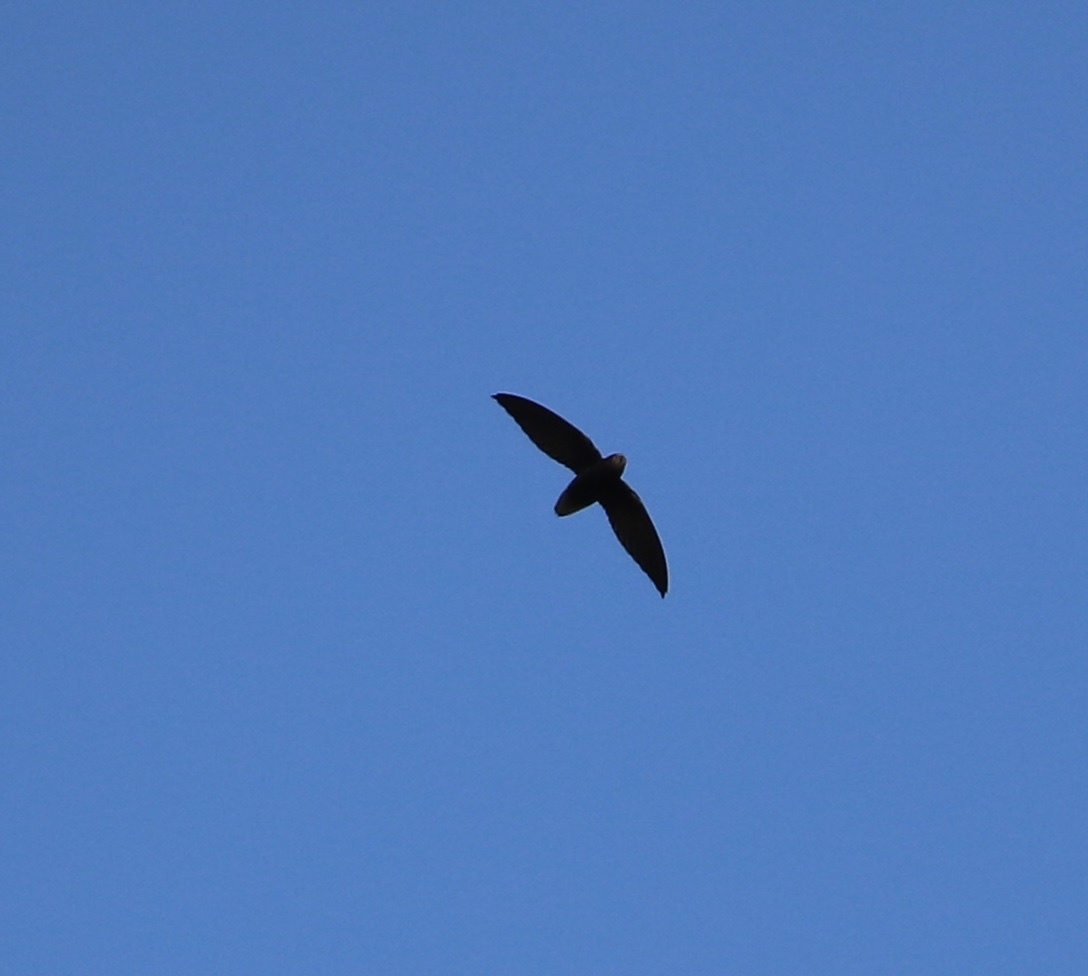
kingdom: Animalia
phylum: Chordata
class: Aves
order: Apodiformes
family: Apodidae
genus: Chaetura
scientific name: Chaetura brachyura
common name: Short-tailed swift
